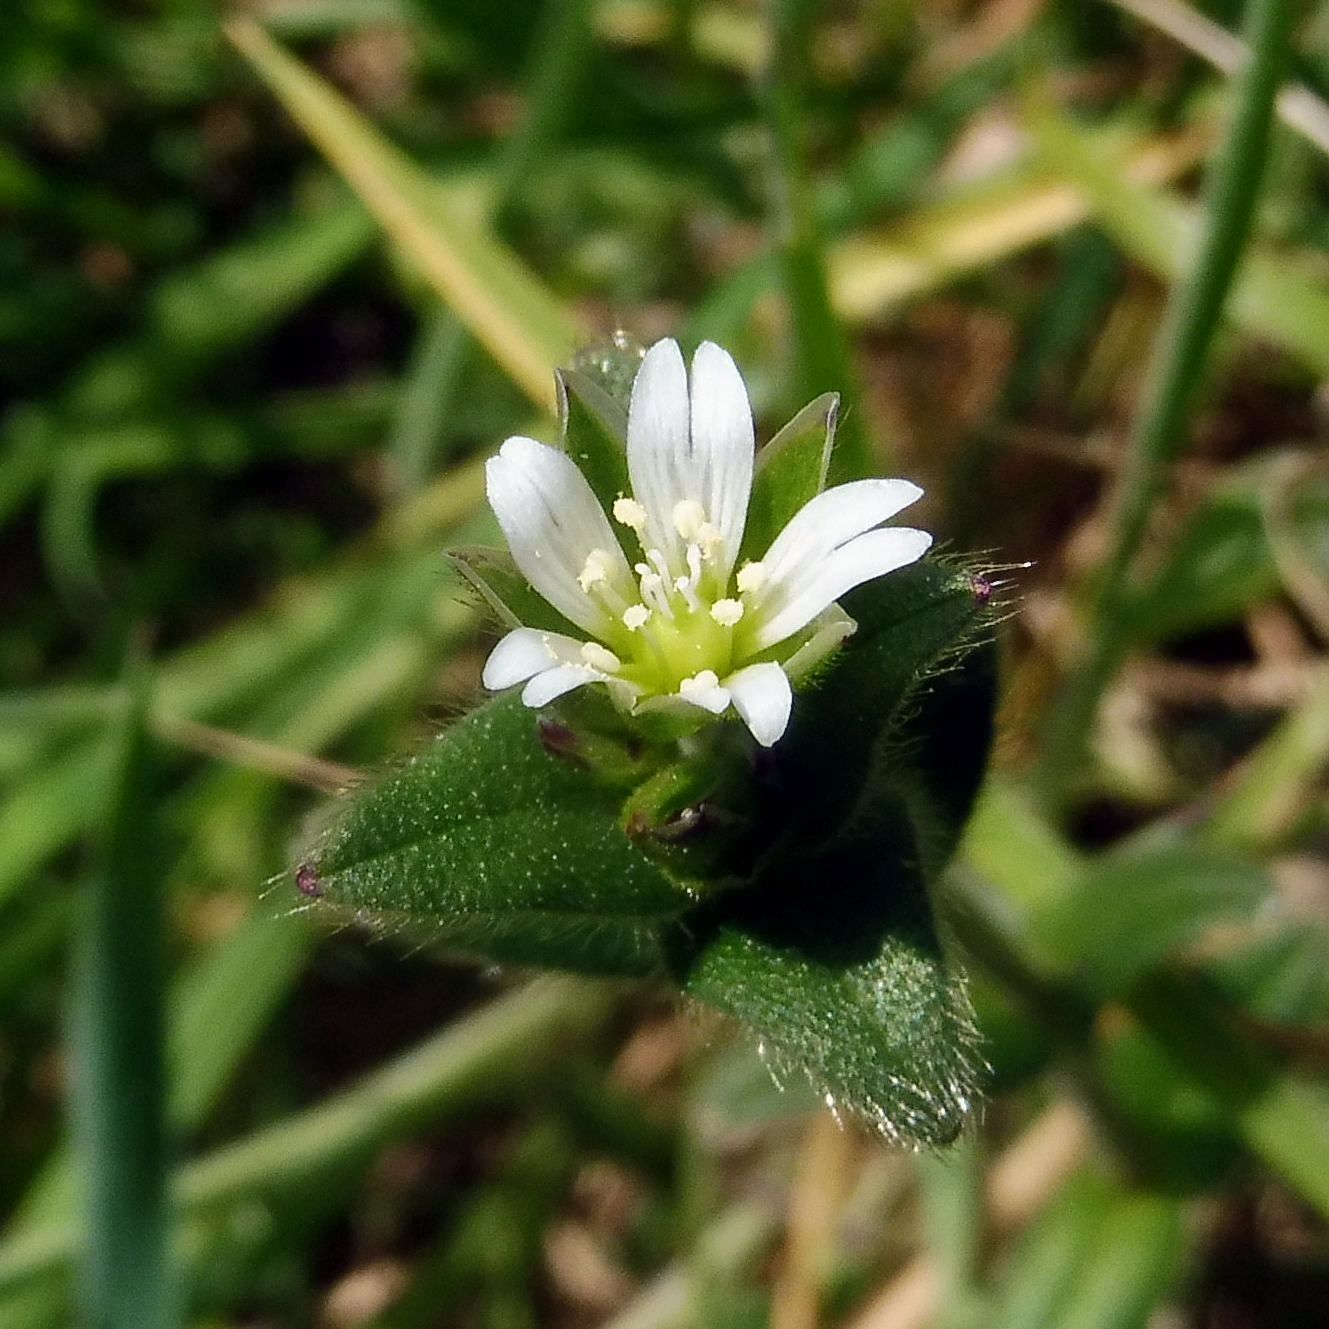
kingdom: Plantae
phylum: Tracheophyta
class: Magnoliopsida
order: Caryophyllales
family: Caryophyllaceae
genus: Cerastium
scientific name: Cerastium fontanum
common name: Common mouse-ear
